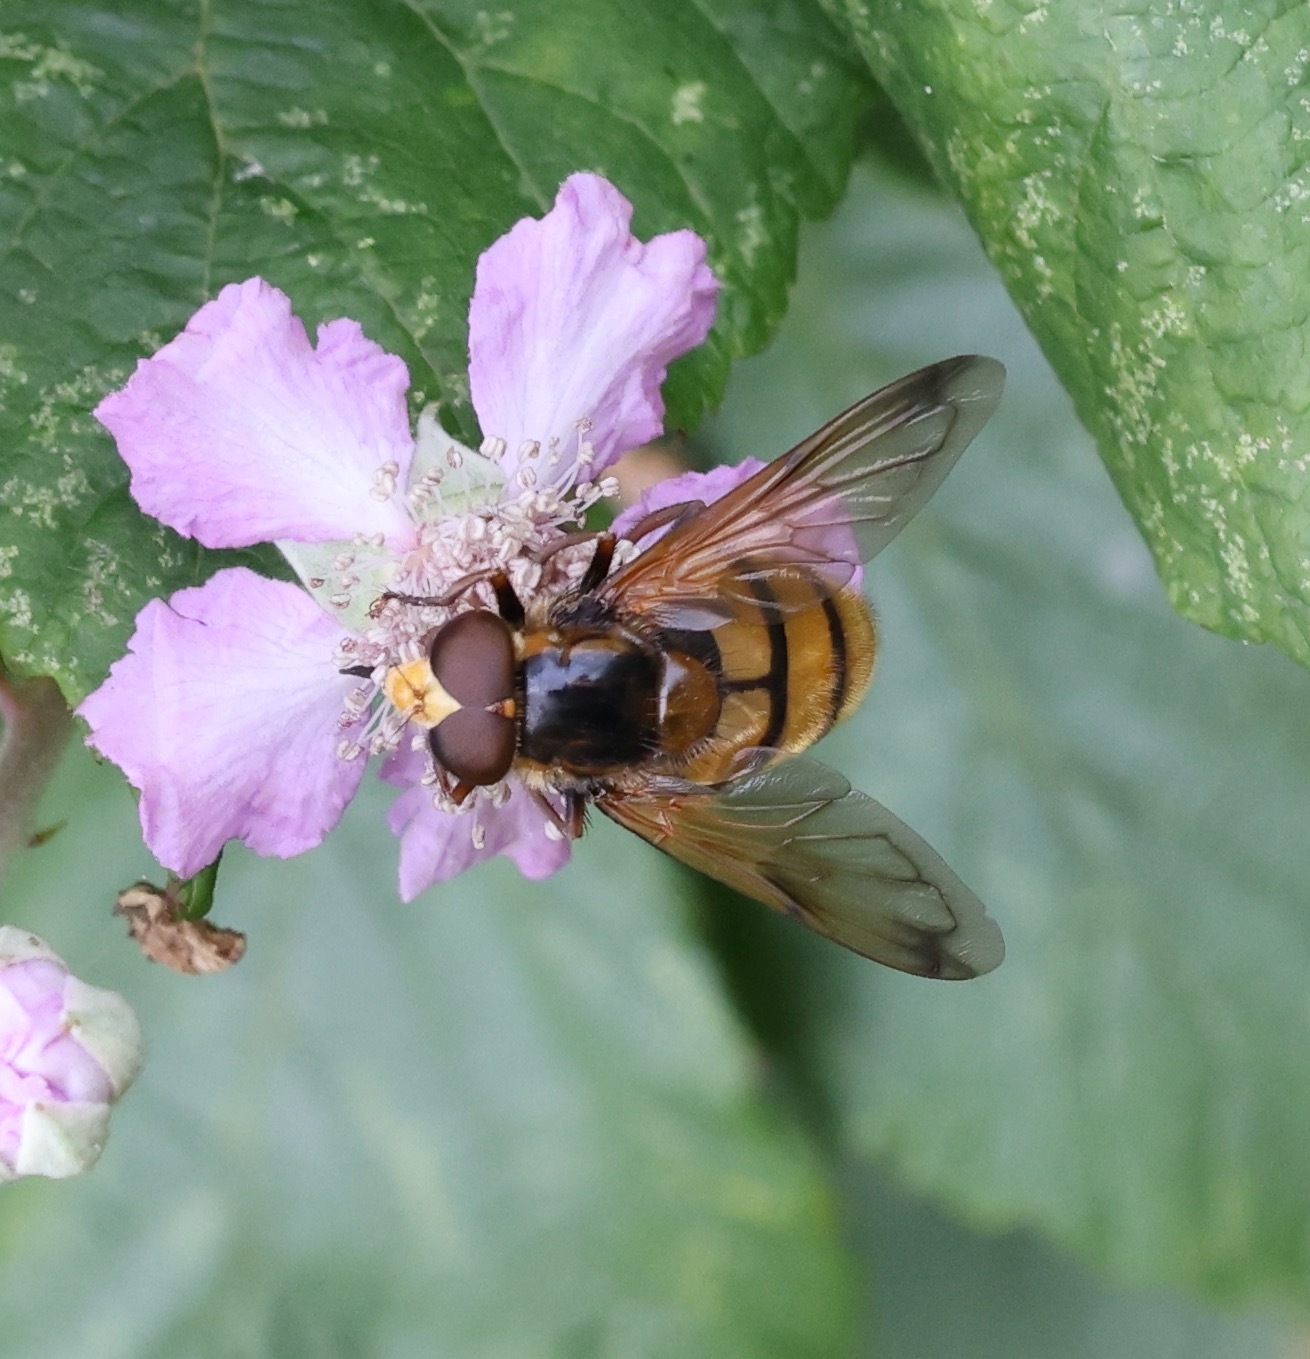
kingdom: Animalia
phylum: Arthropoda
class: Insecta
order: Diptera
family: Syrphidae
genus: Volucella
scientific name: Volucella inanis
